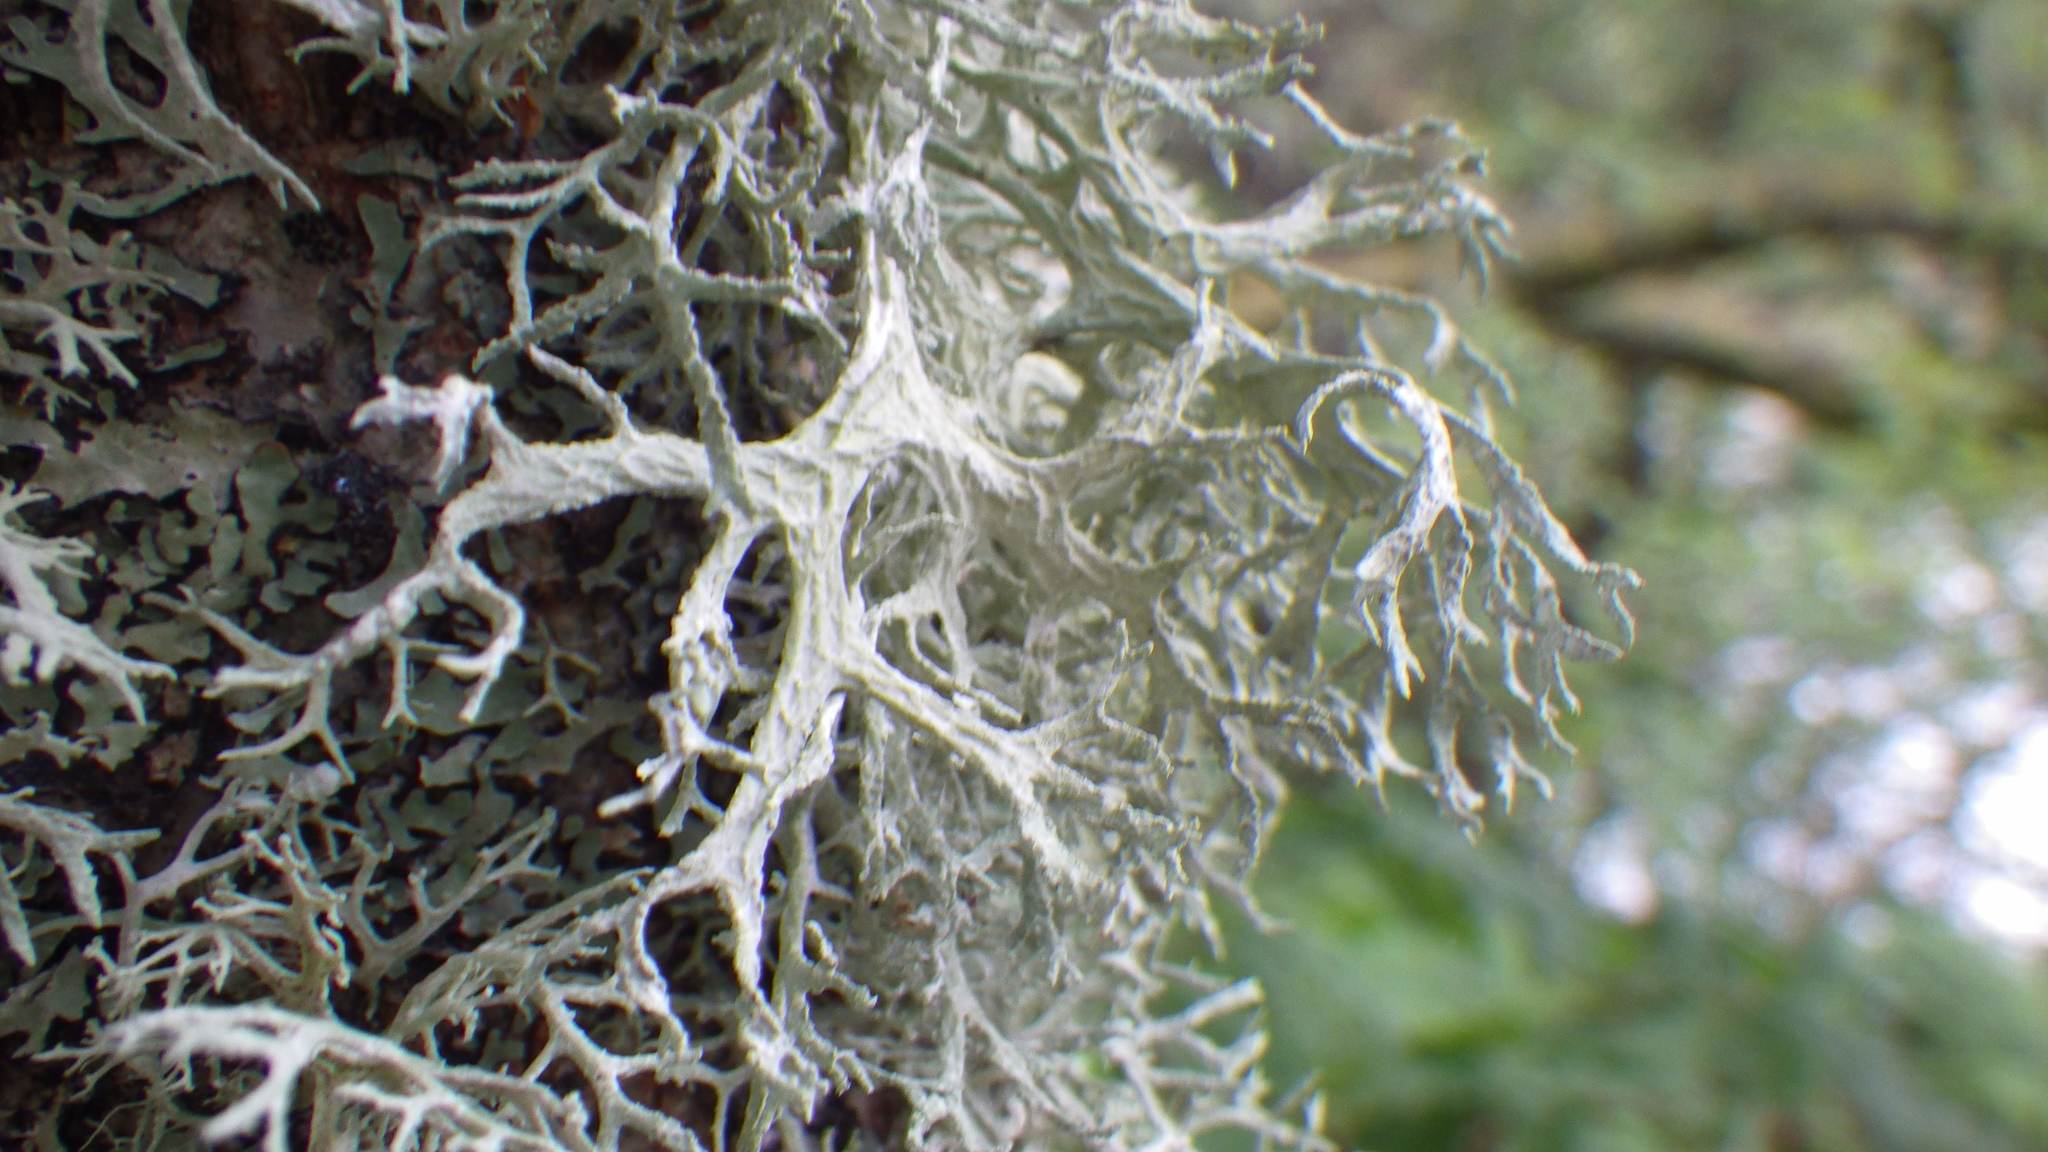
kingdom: Fungi
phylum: Ascomycota
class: Lecanoromycetes
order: Lecanorales
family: Parmeliaceae
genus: Evernia
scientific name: Evernia prunastri
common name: Oak moss
